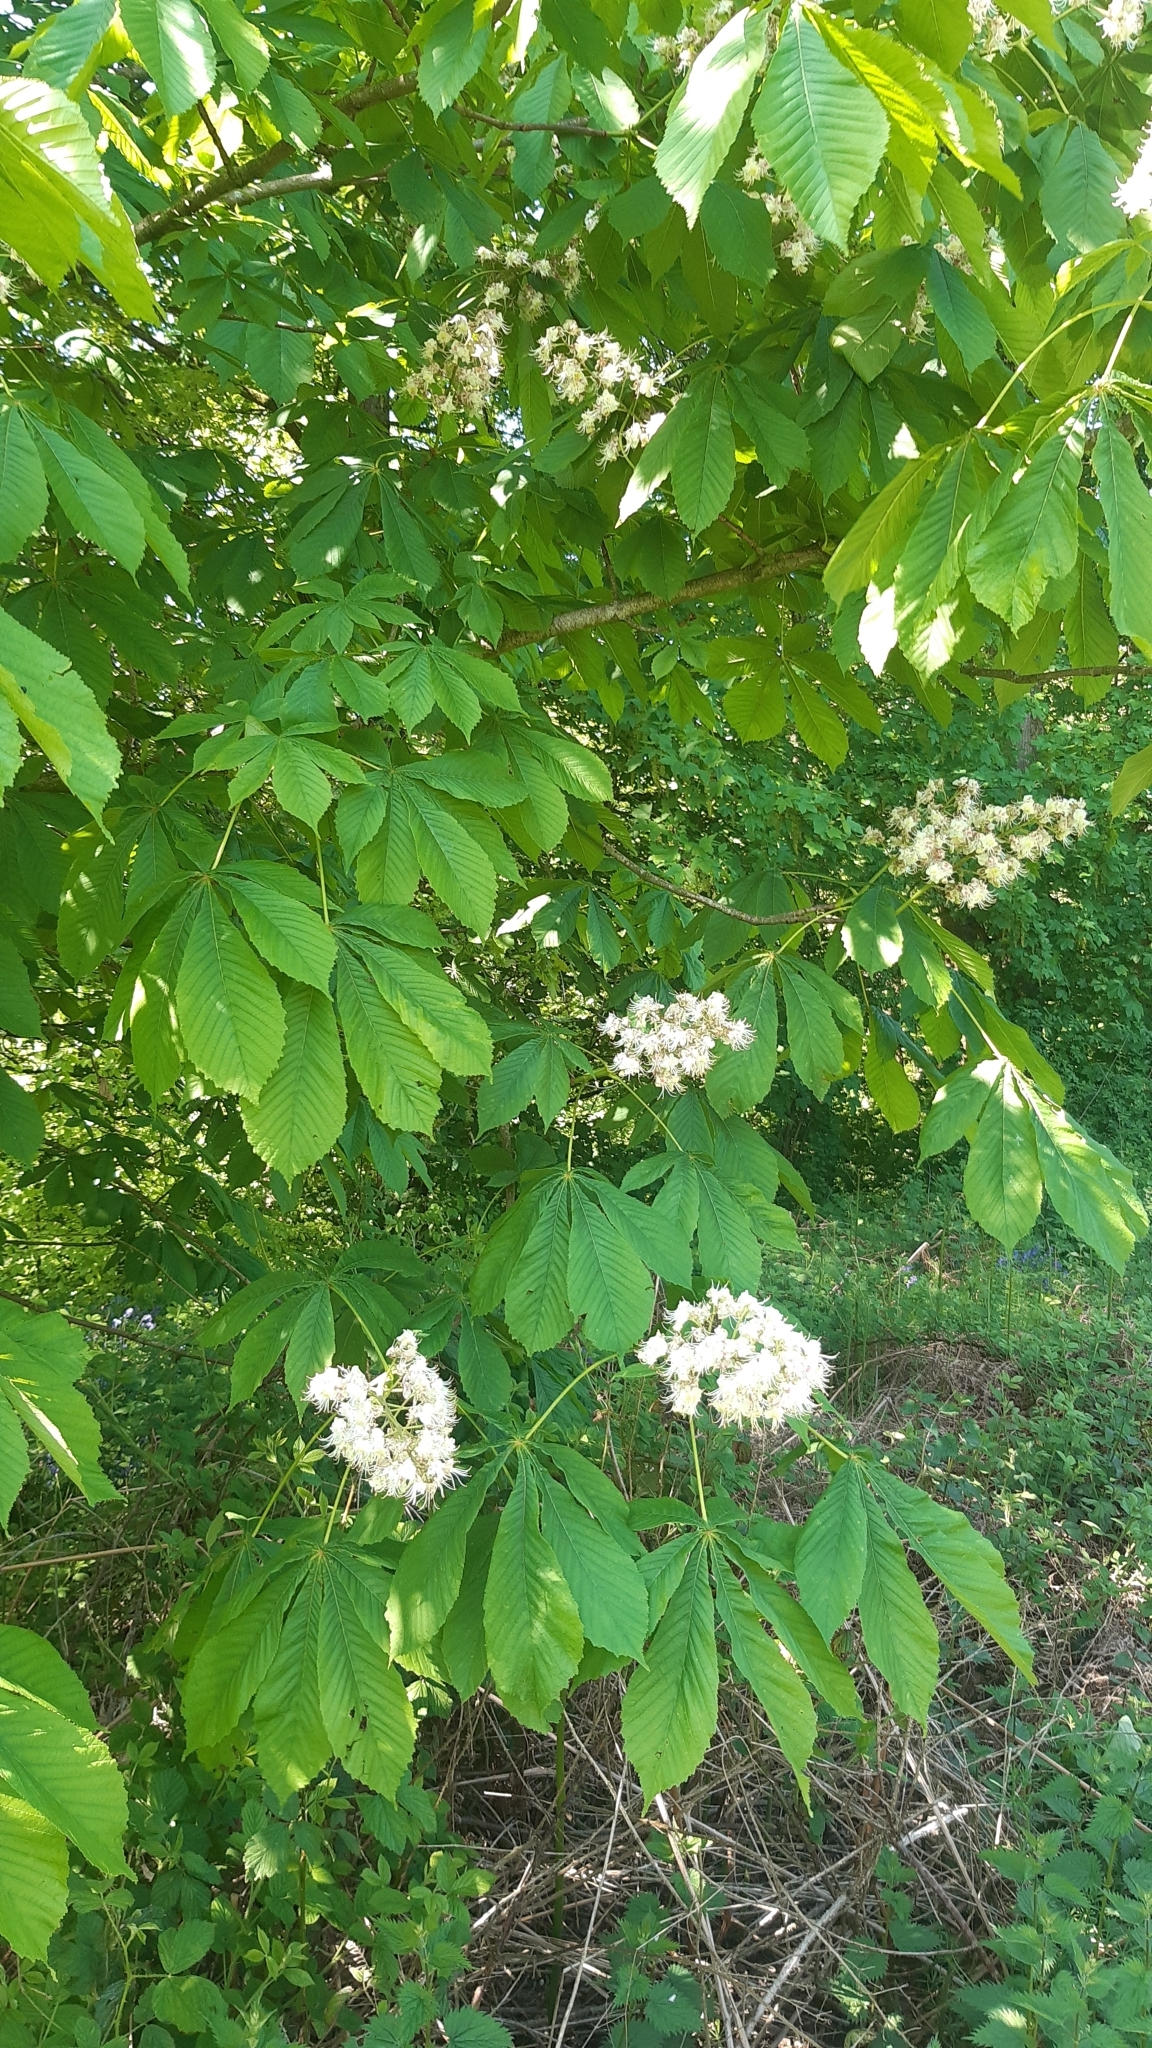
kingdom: Plantae
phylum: Tracheophyta
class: Magnoliopsida
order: Sapindales
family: Sapindaceae
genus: Aesculus
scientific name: Aesculus hippocastanum
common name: Horse-chestnut
